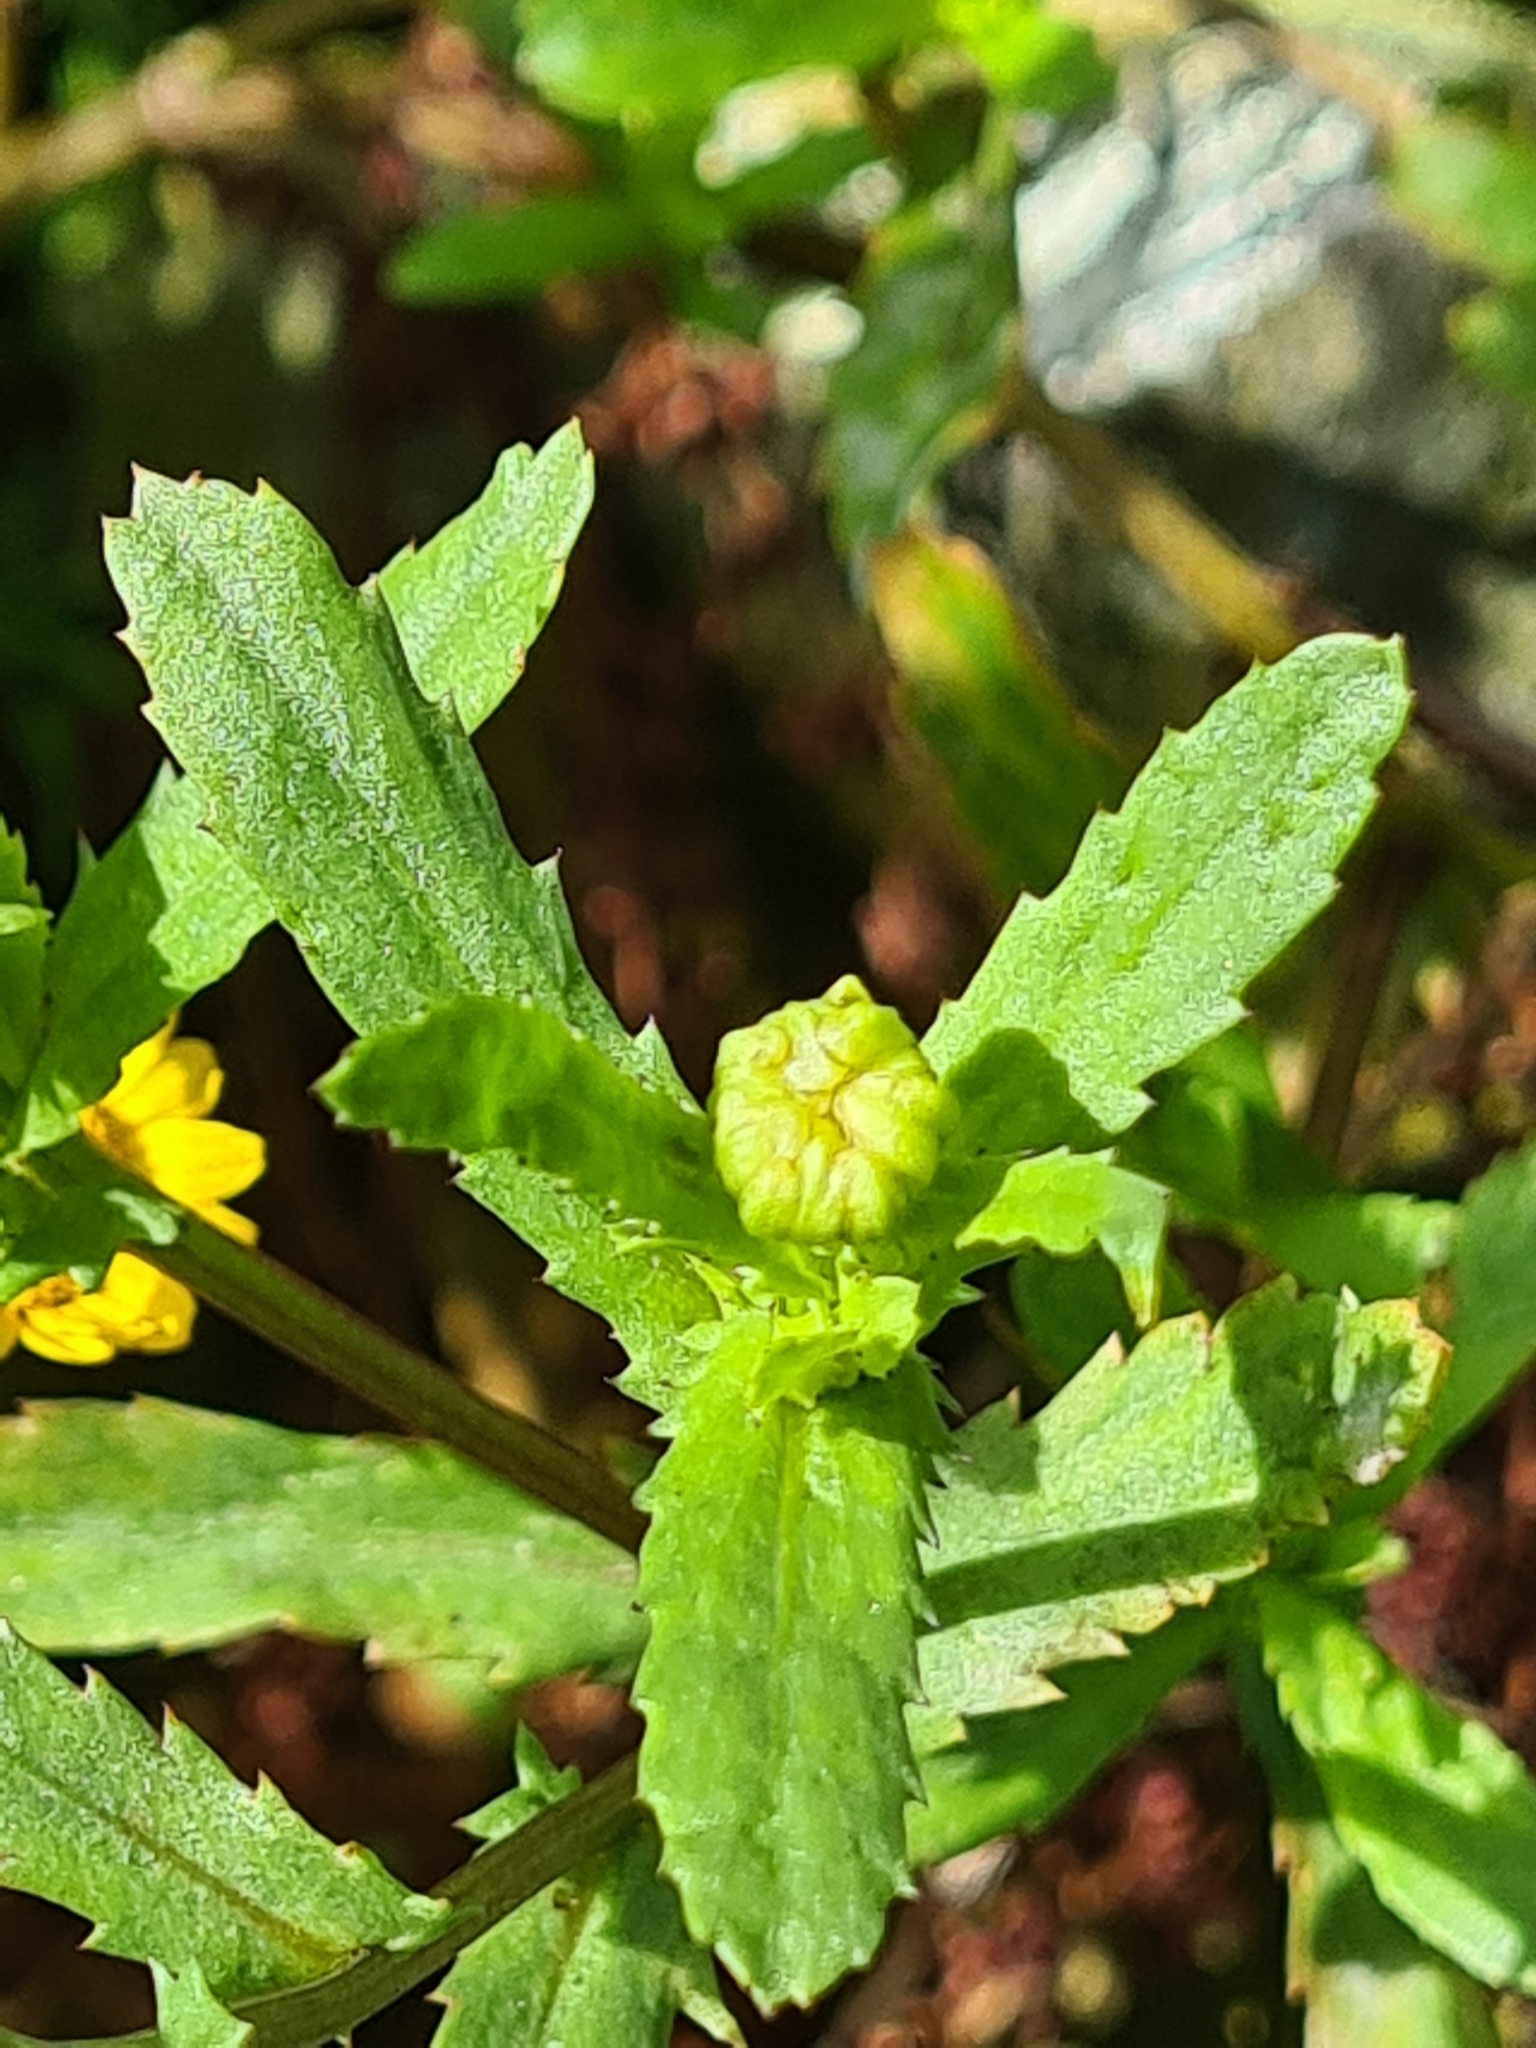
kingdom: Plantae
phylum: Tracheophyta
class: Magnoliopsida
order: Asterales
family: Asteraceae
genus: Coleostephus
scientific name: Coleostephus myconis
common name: Mediterranean marigold
